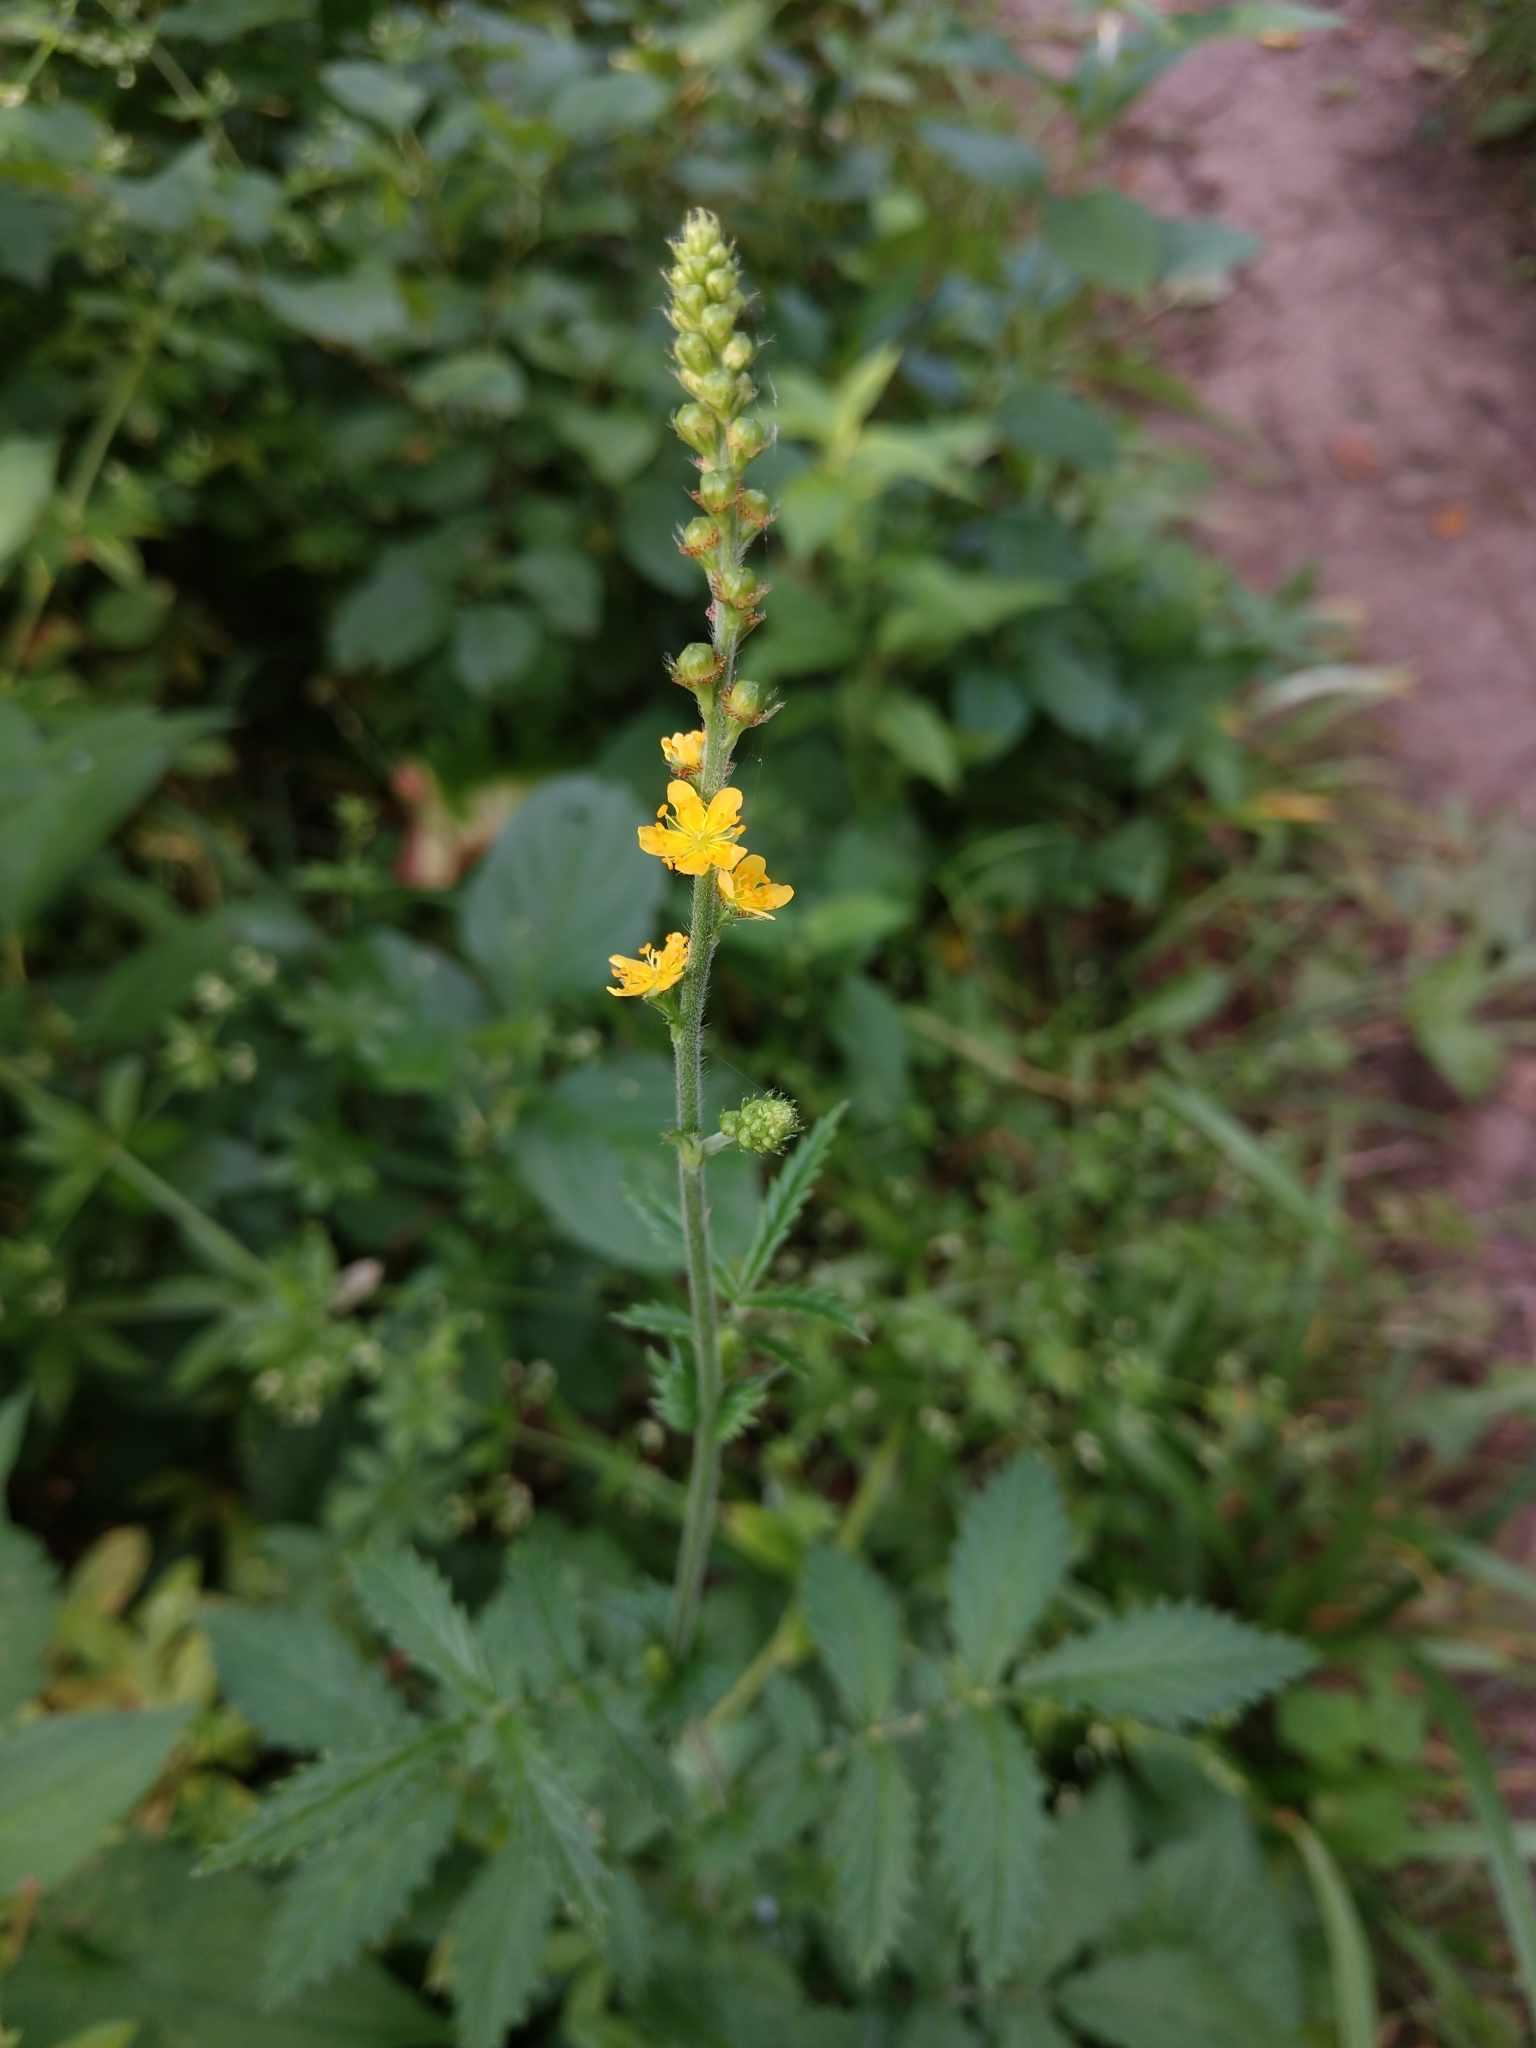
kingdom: Plantae
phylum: Tracheophyta
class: Magnoliopsida
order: Rosales
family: Rosaceae
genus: Agrimonia
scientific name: Agrimonia pubescens
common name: Downy agrimony
